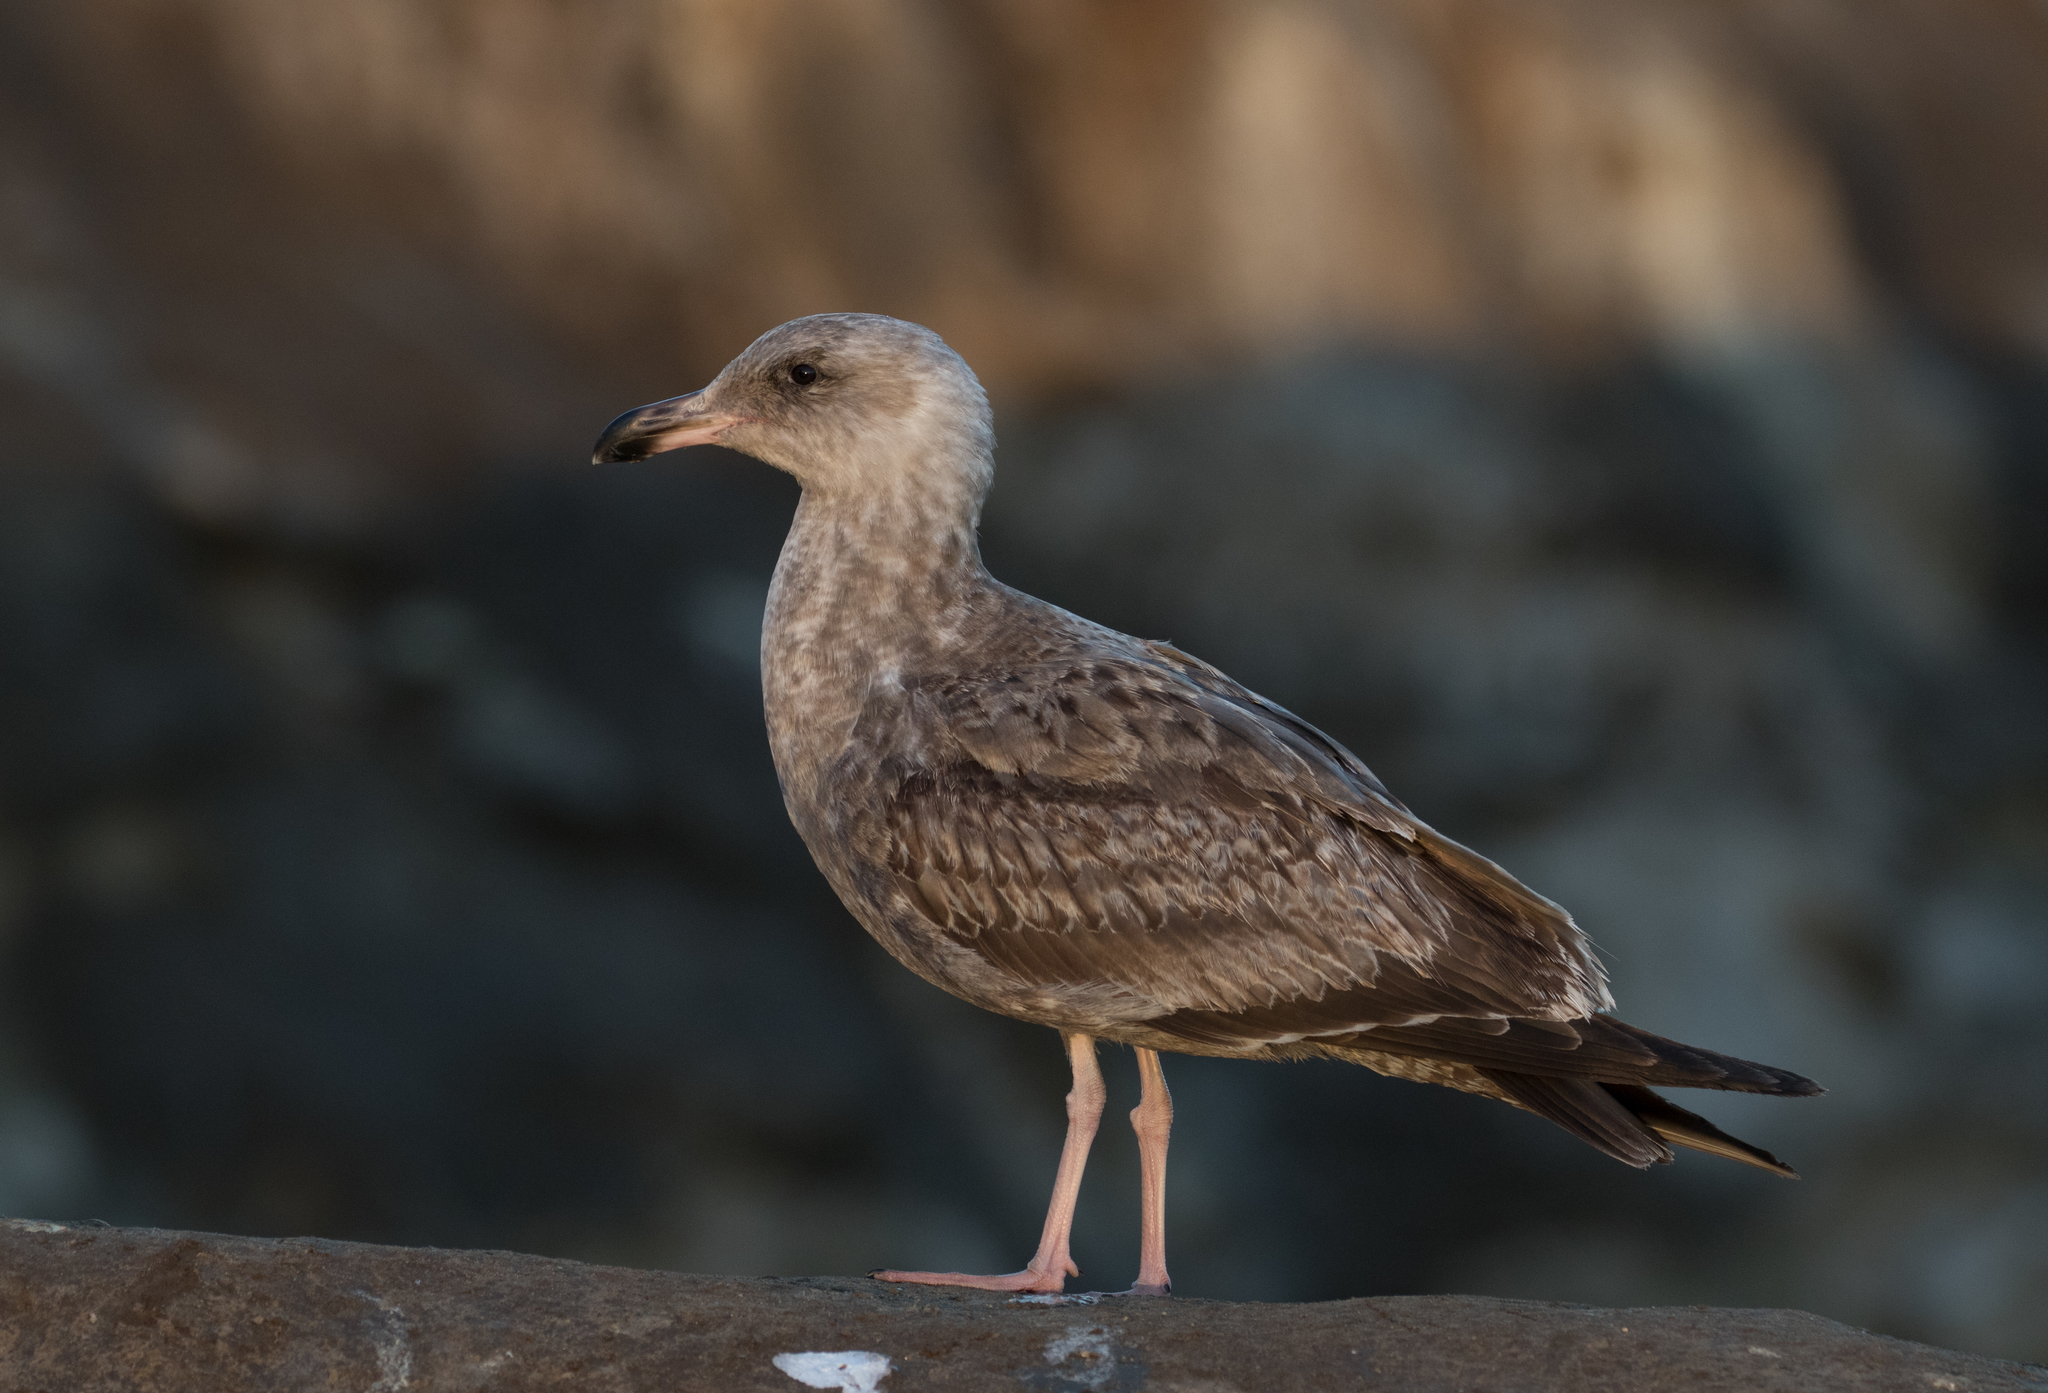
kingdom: Animalia
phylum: Chordata
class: Aves
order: Charadriiformes
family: Laridae
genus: Larus
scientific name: Larus occidentalis
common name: Western gull
